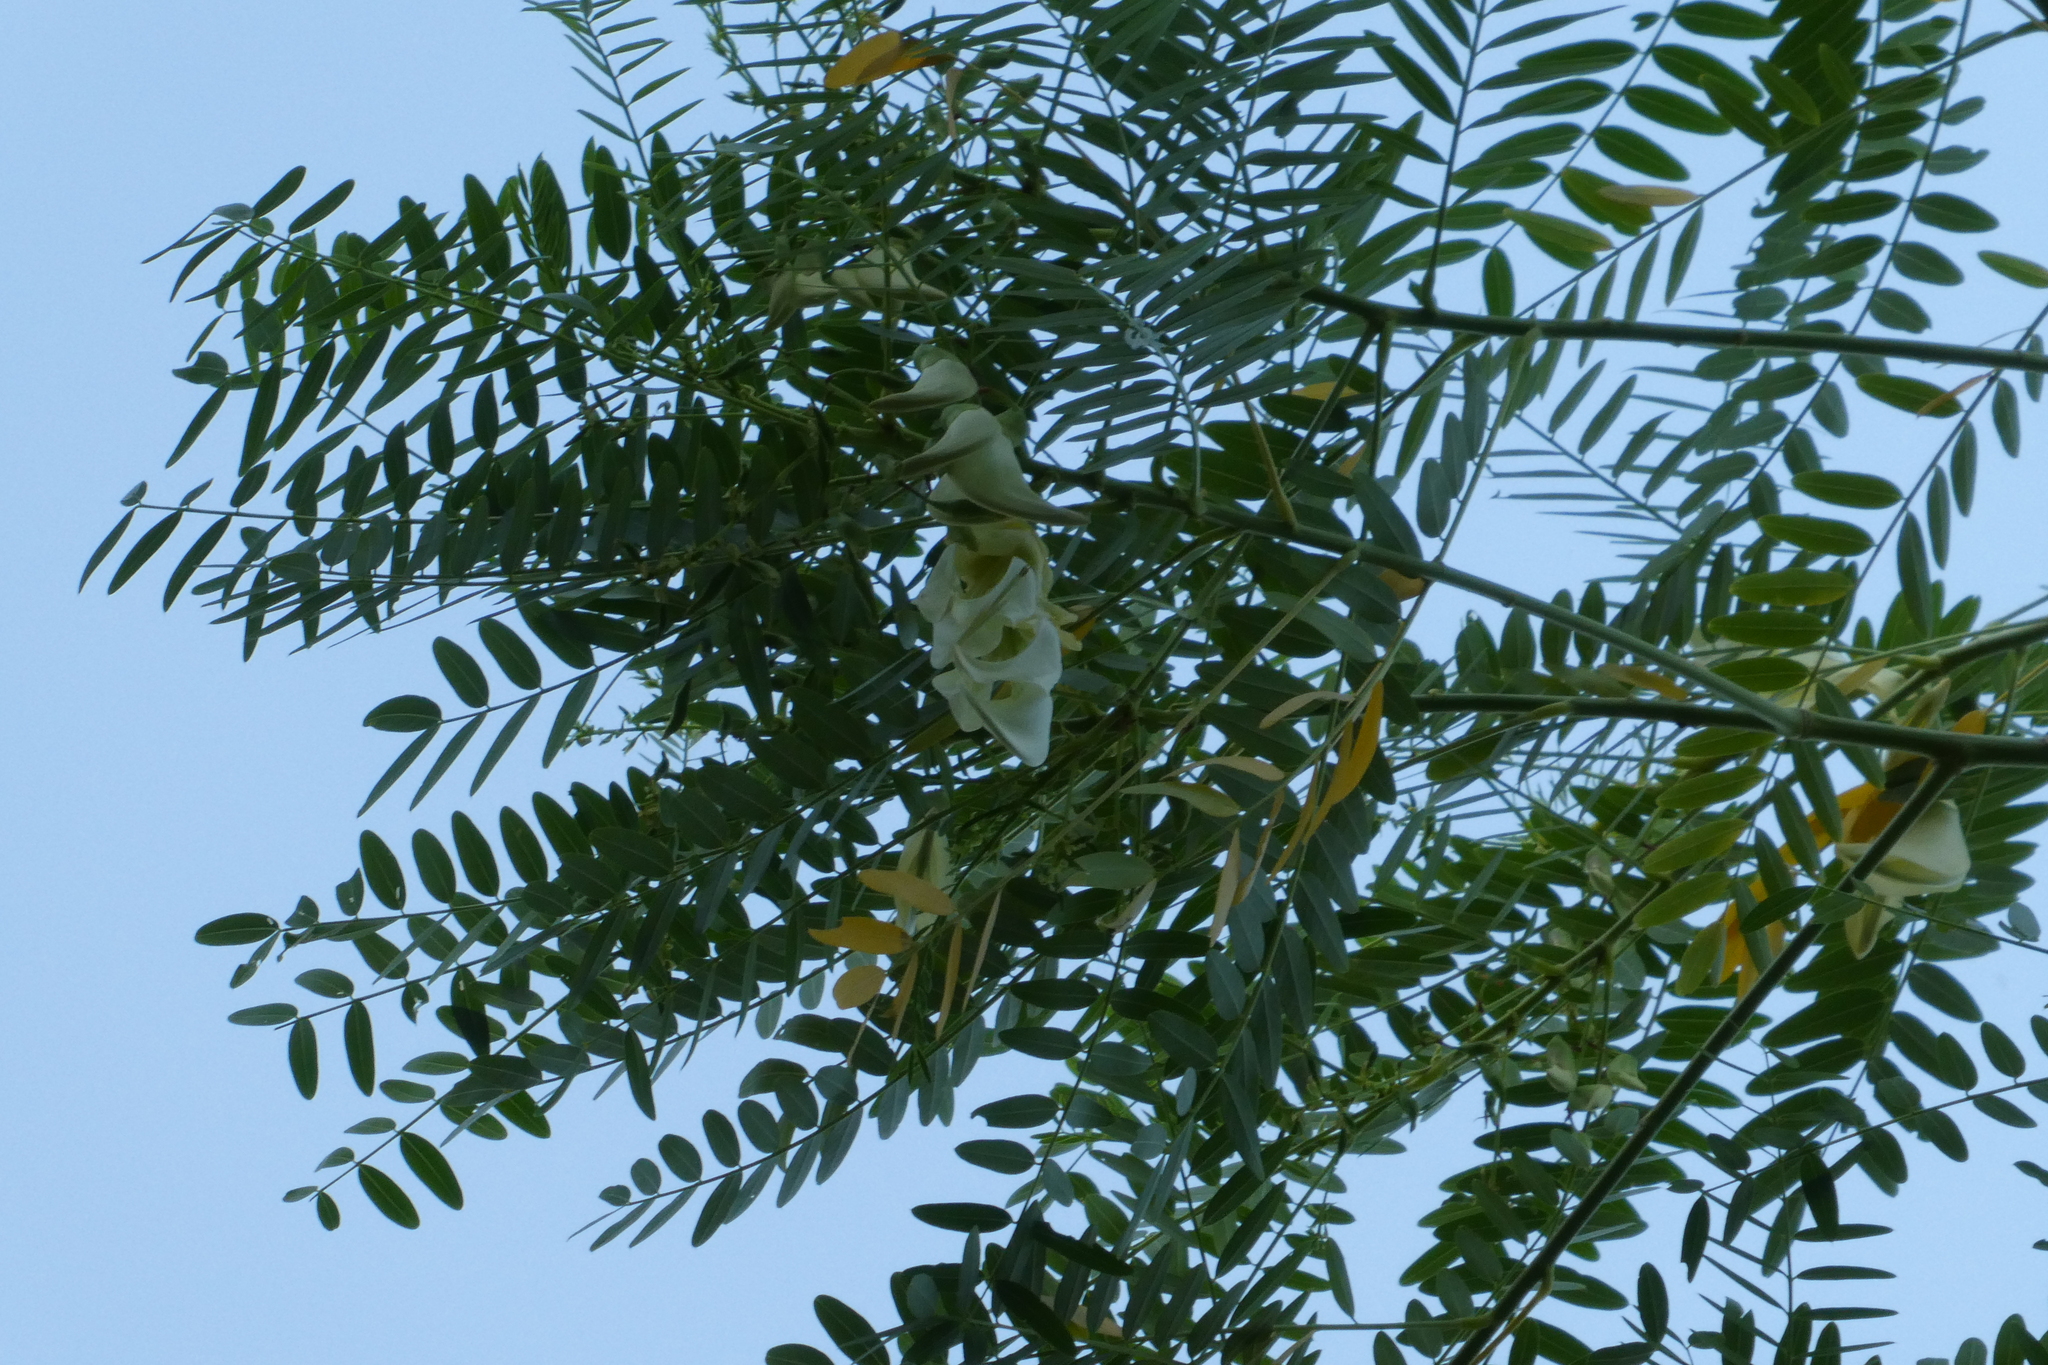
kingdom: Plantae
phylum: Tracheophyta
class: Magnoliopsida
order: Fabales
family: Fabaceae
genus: Sesbania
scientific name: Sesbania formosa
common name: Vegetable-hummingbird
